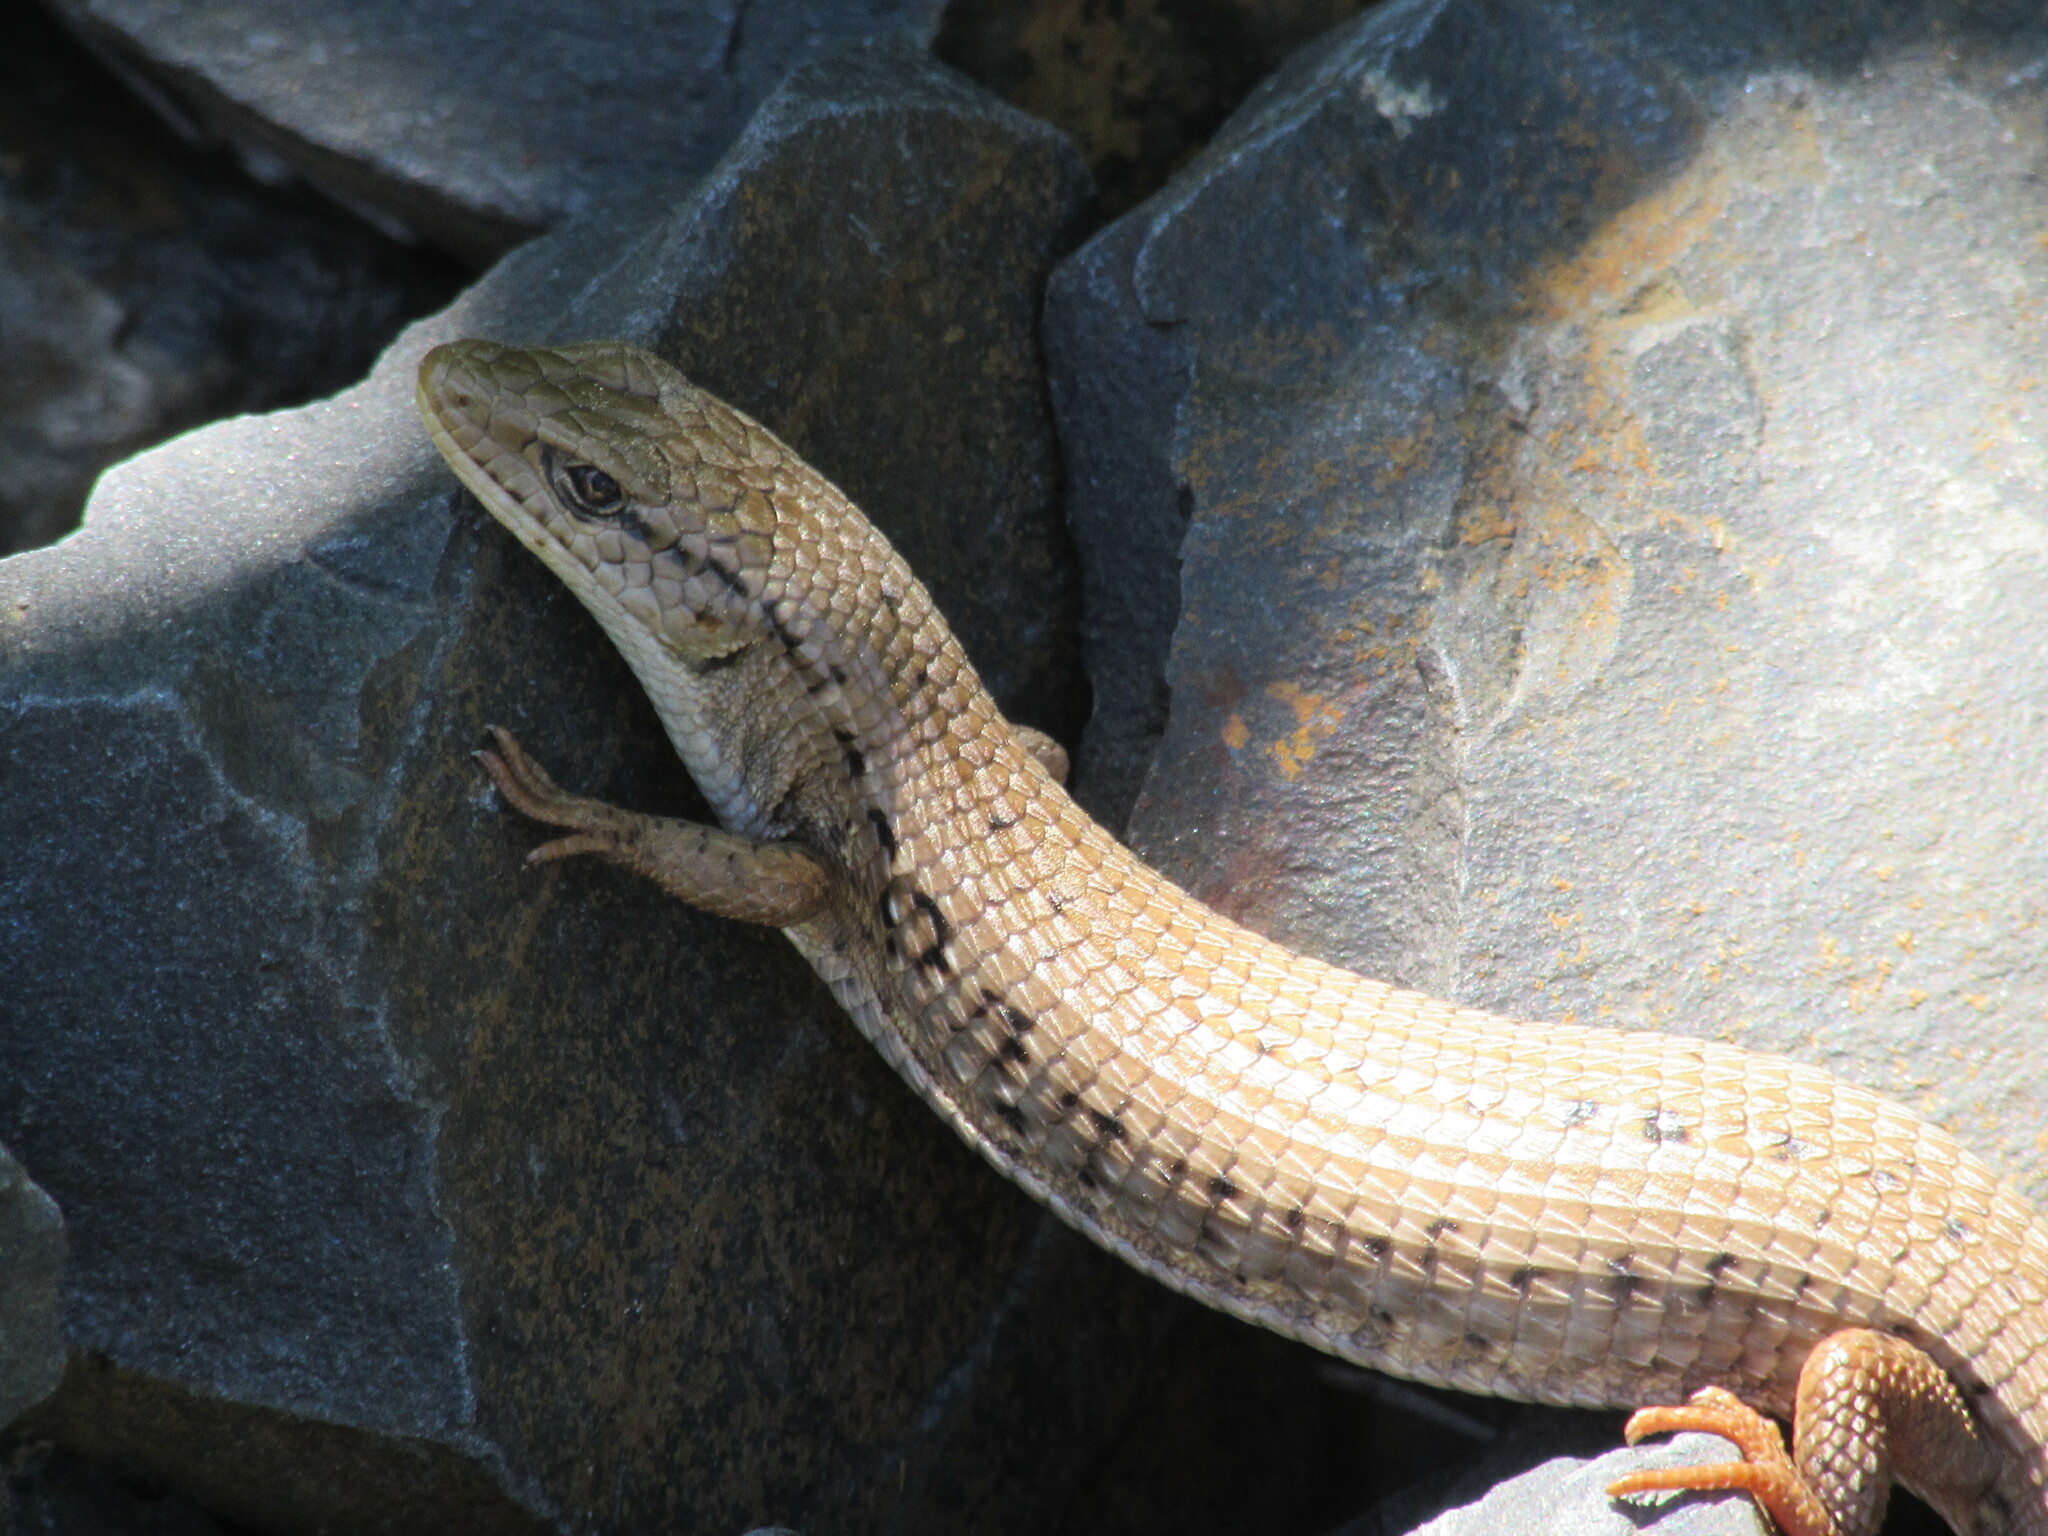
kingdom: Animalia
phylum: Chordata
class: Squamata
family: Anguidae
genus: Elgaria
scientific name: Elgaria coerulea
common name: Northern alligator lizard
